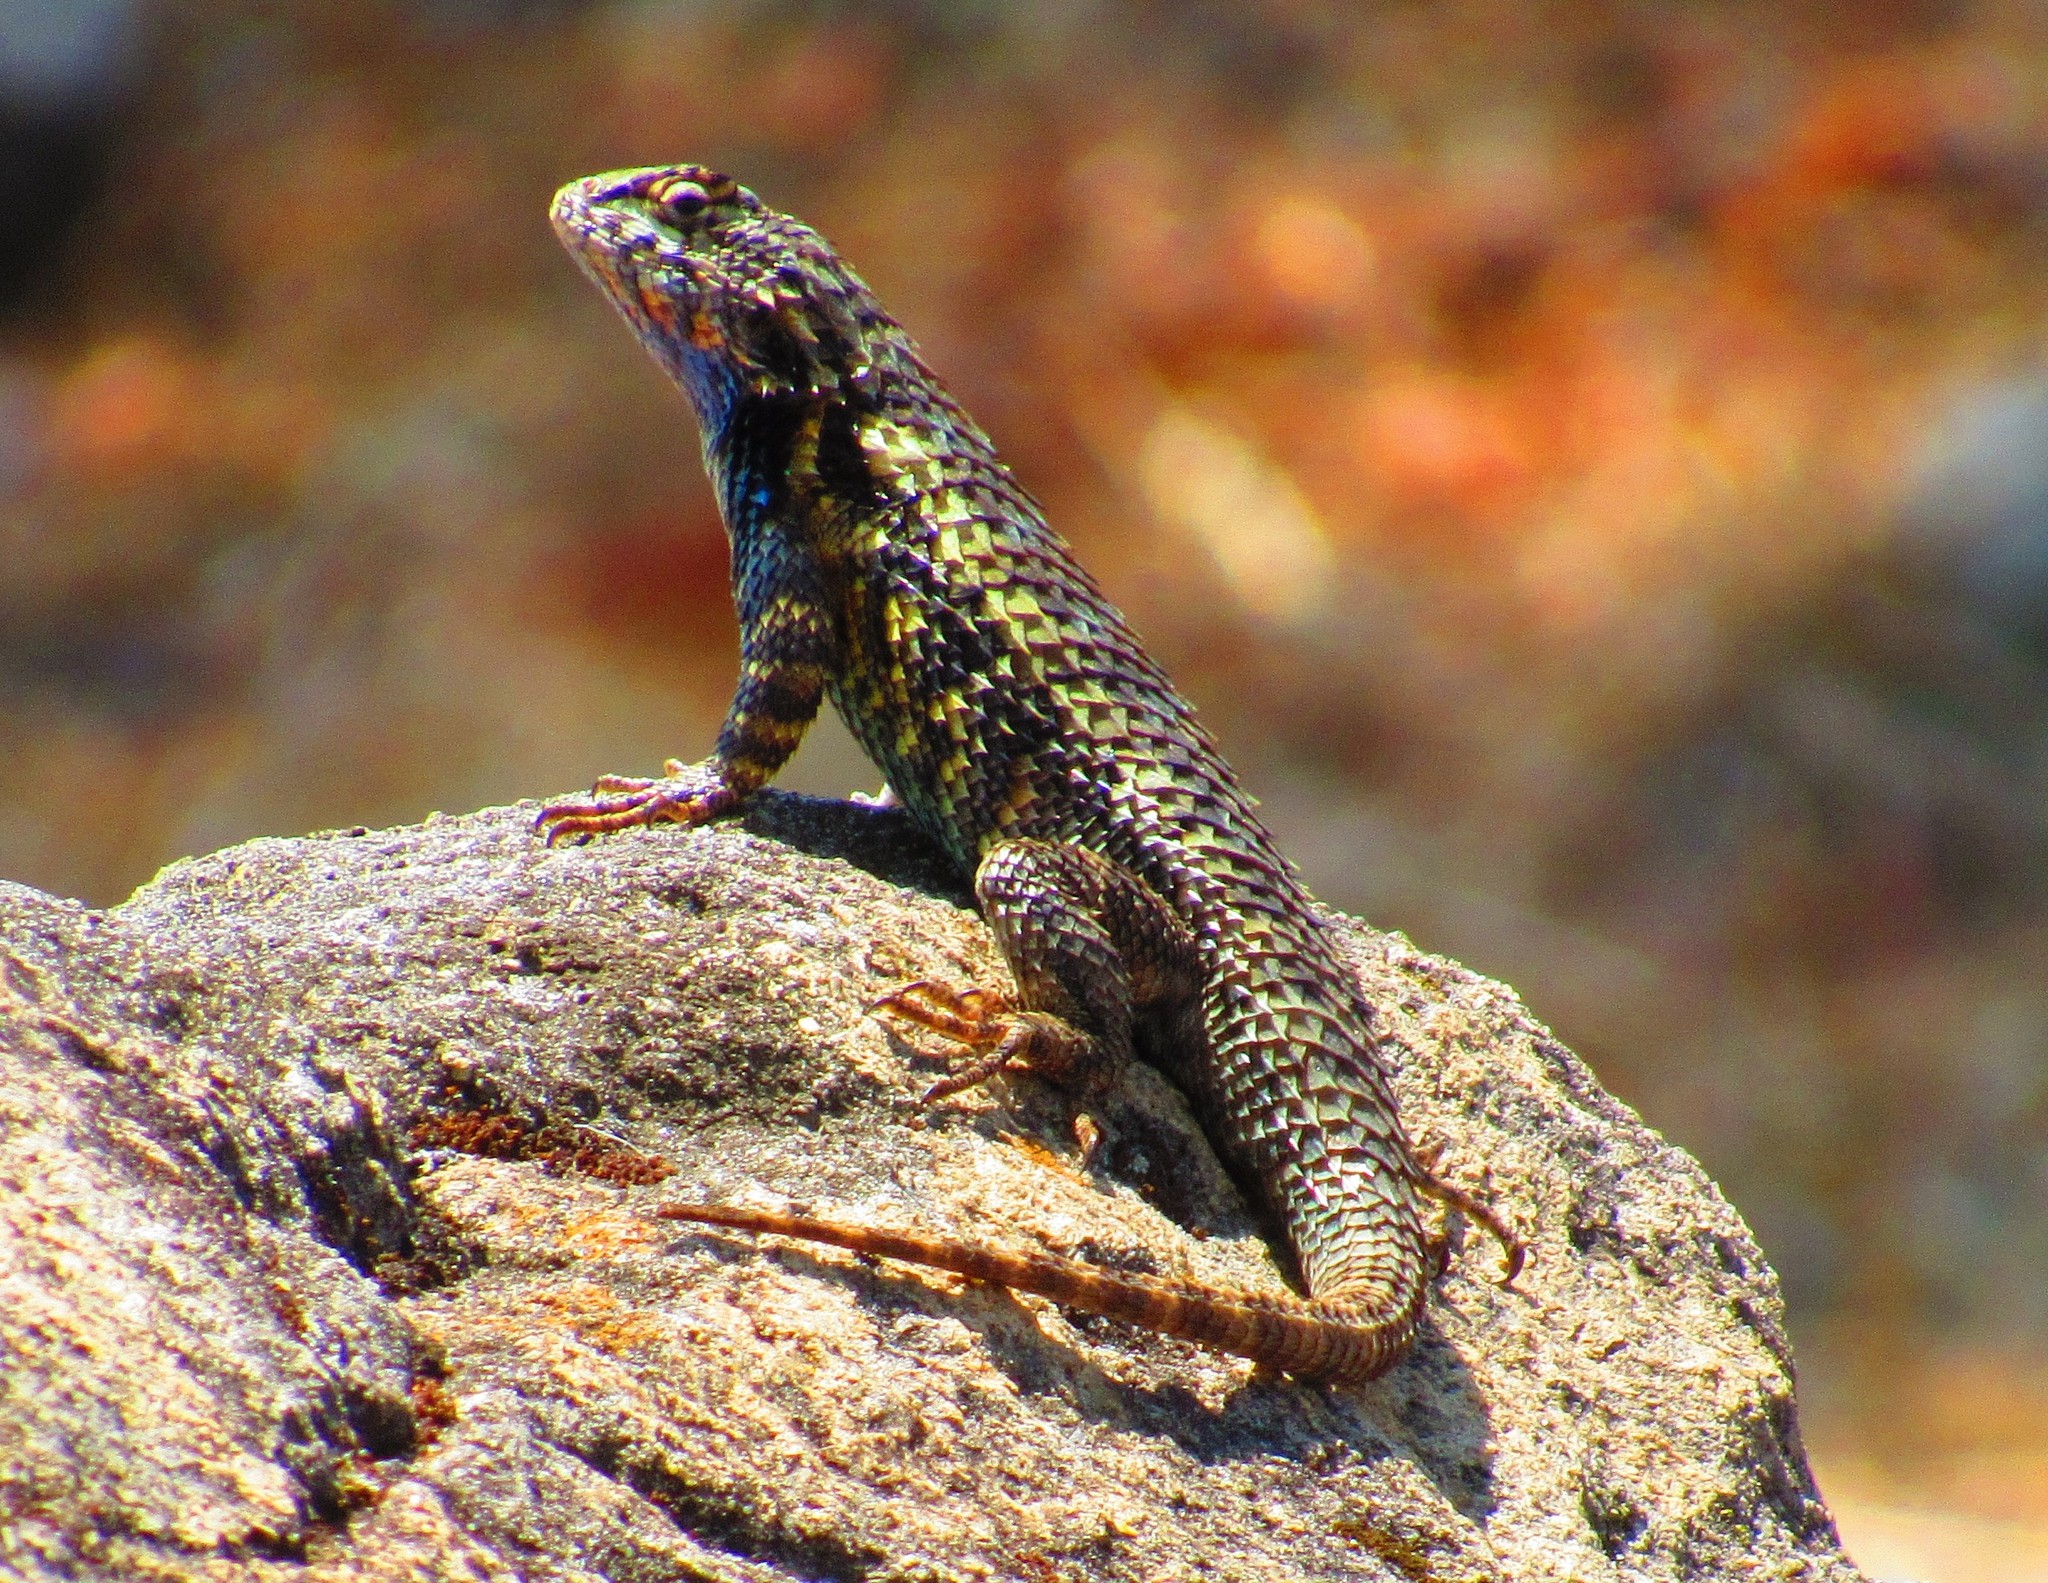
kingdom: Animalia
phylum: Chordata
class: Squamata
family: Phrynosomatidae
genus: Sceloporus
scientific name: Sceloporus spinosus
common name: Blue-spotted spiny lizard [caeruleopunctatus]
